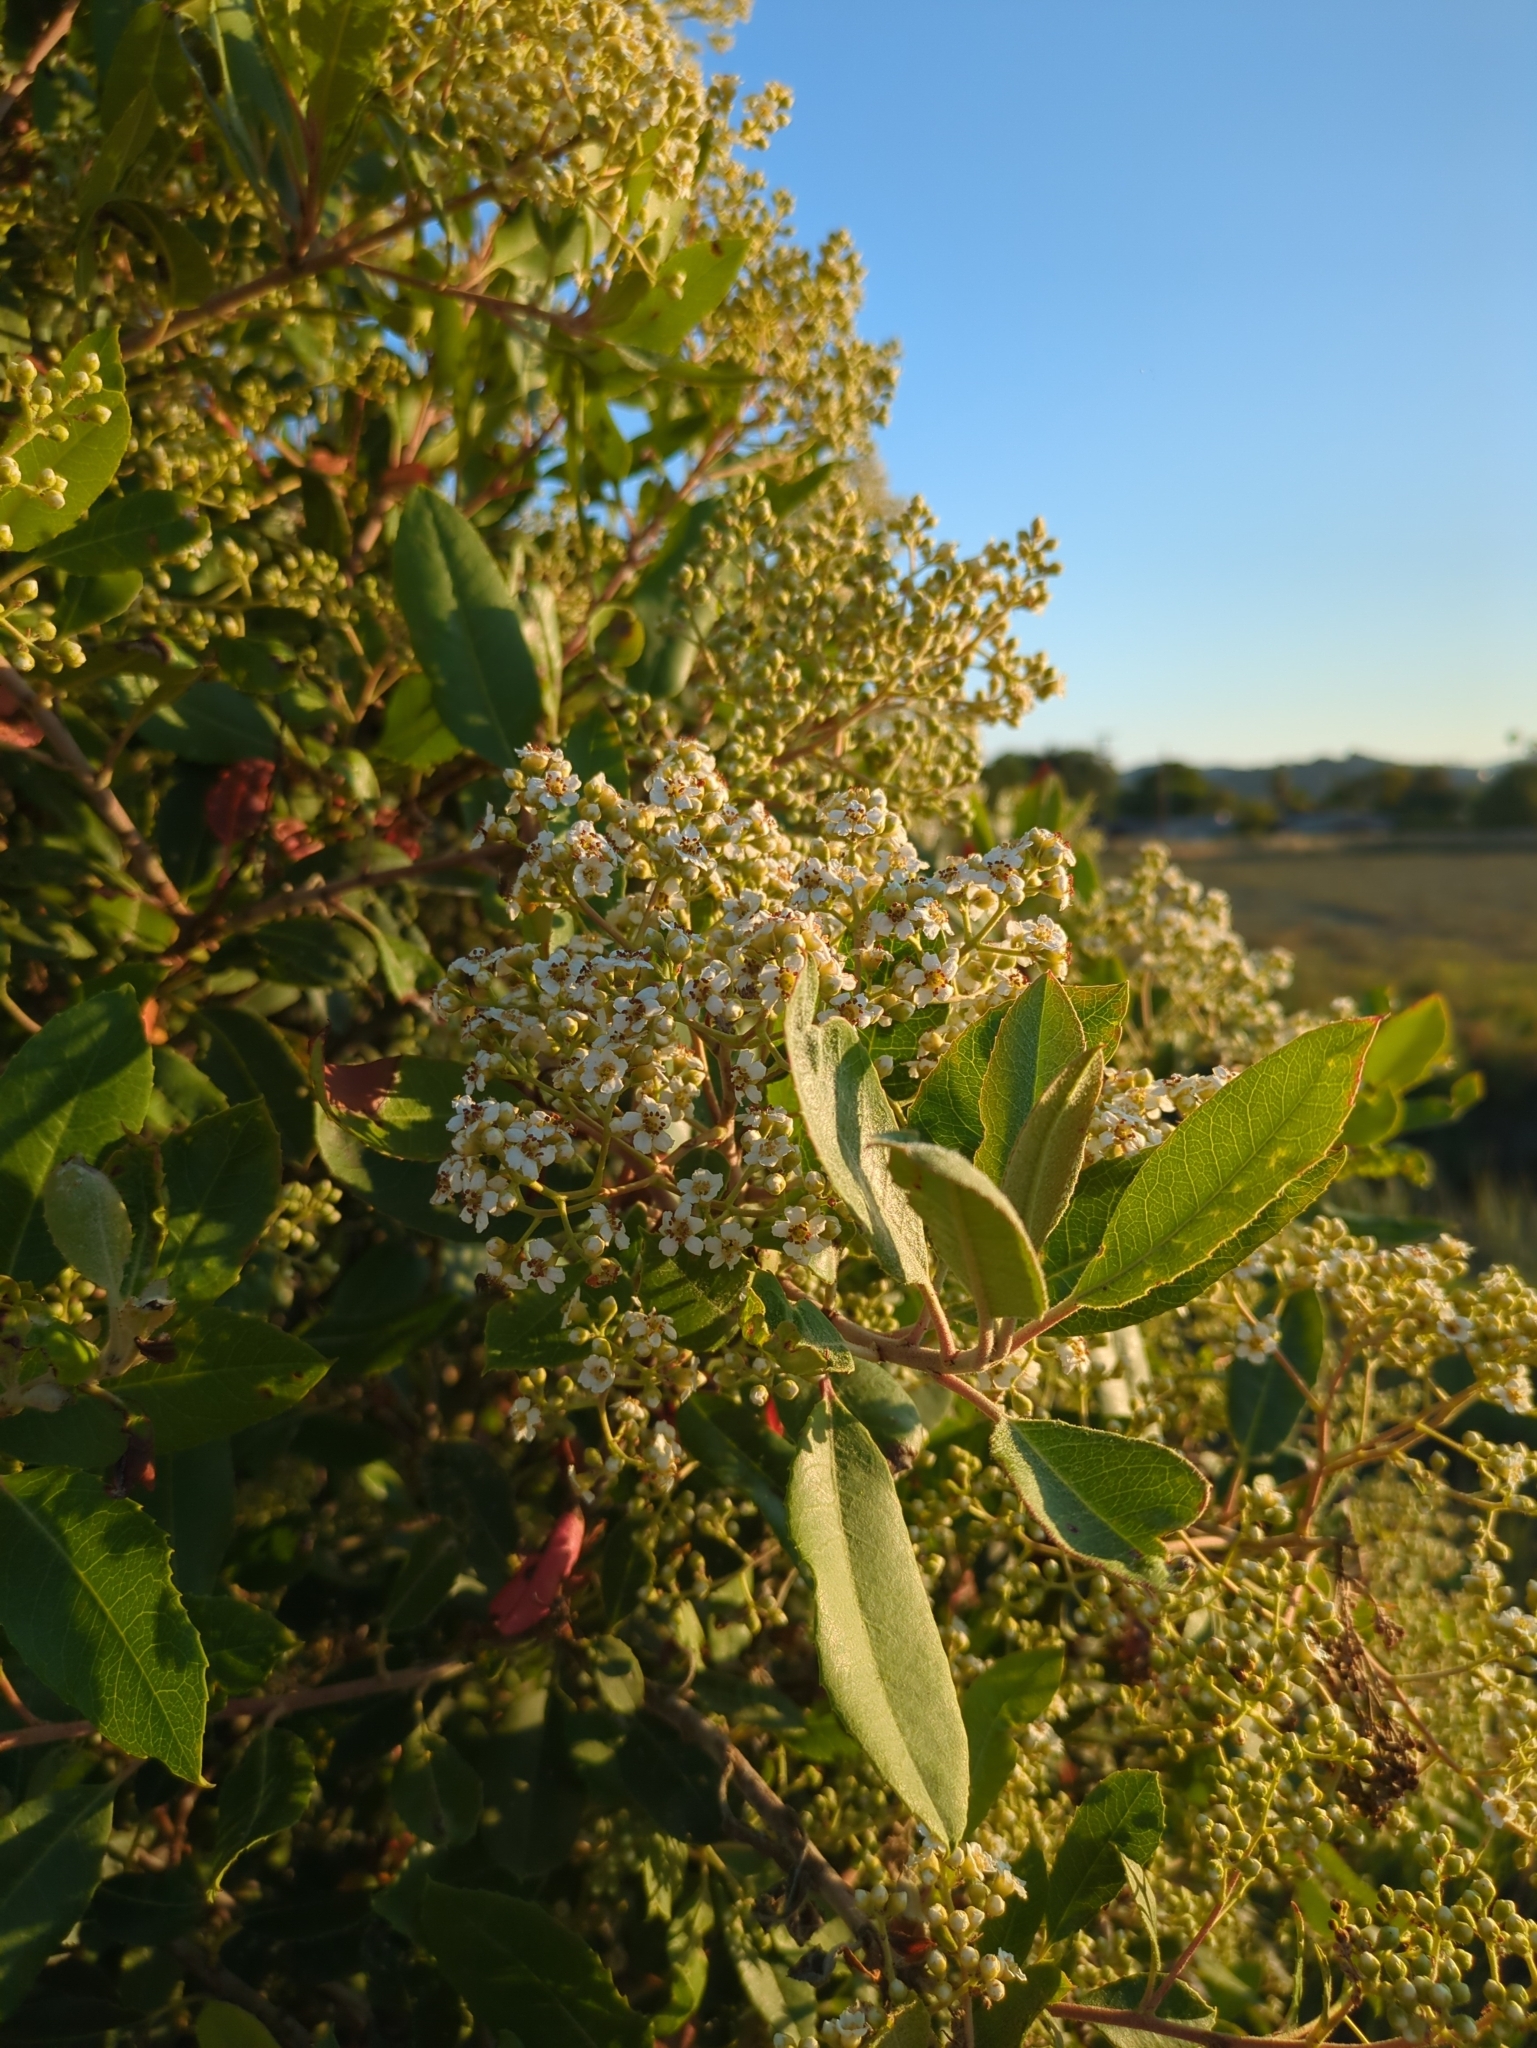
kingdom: Plantae
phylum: Tracheophyta
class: Magnoliopsida
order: Rosales
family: Rosaceae
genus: Heteromeles
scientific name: Heteromeles arbutifolia
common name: California-holly
